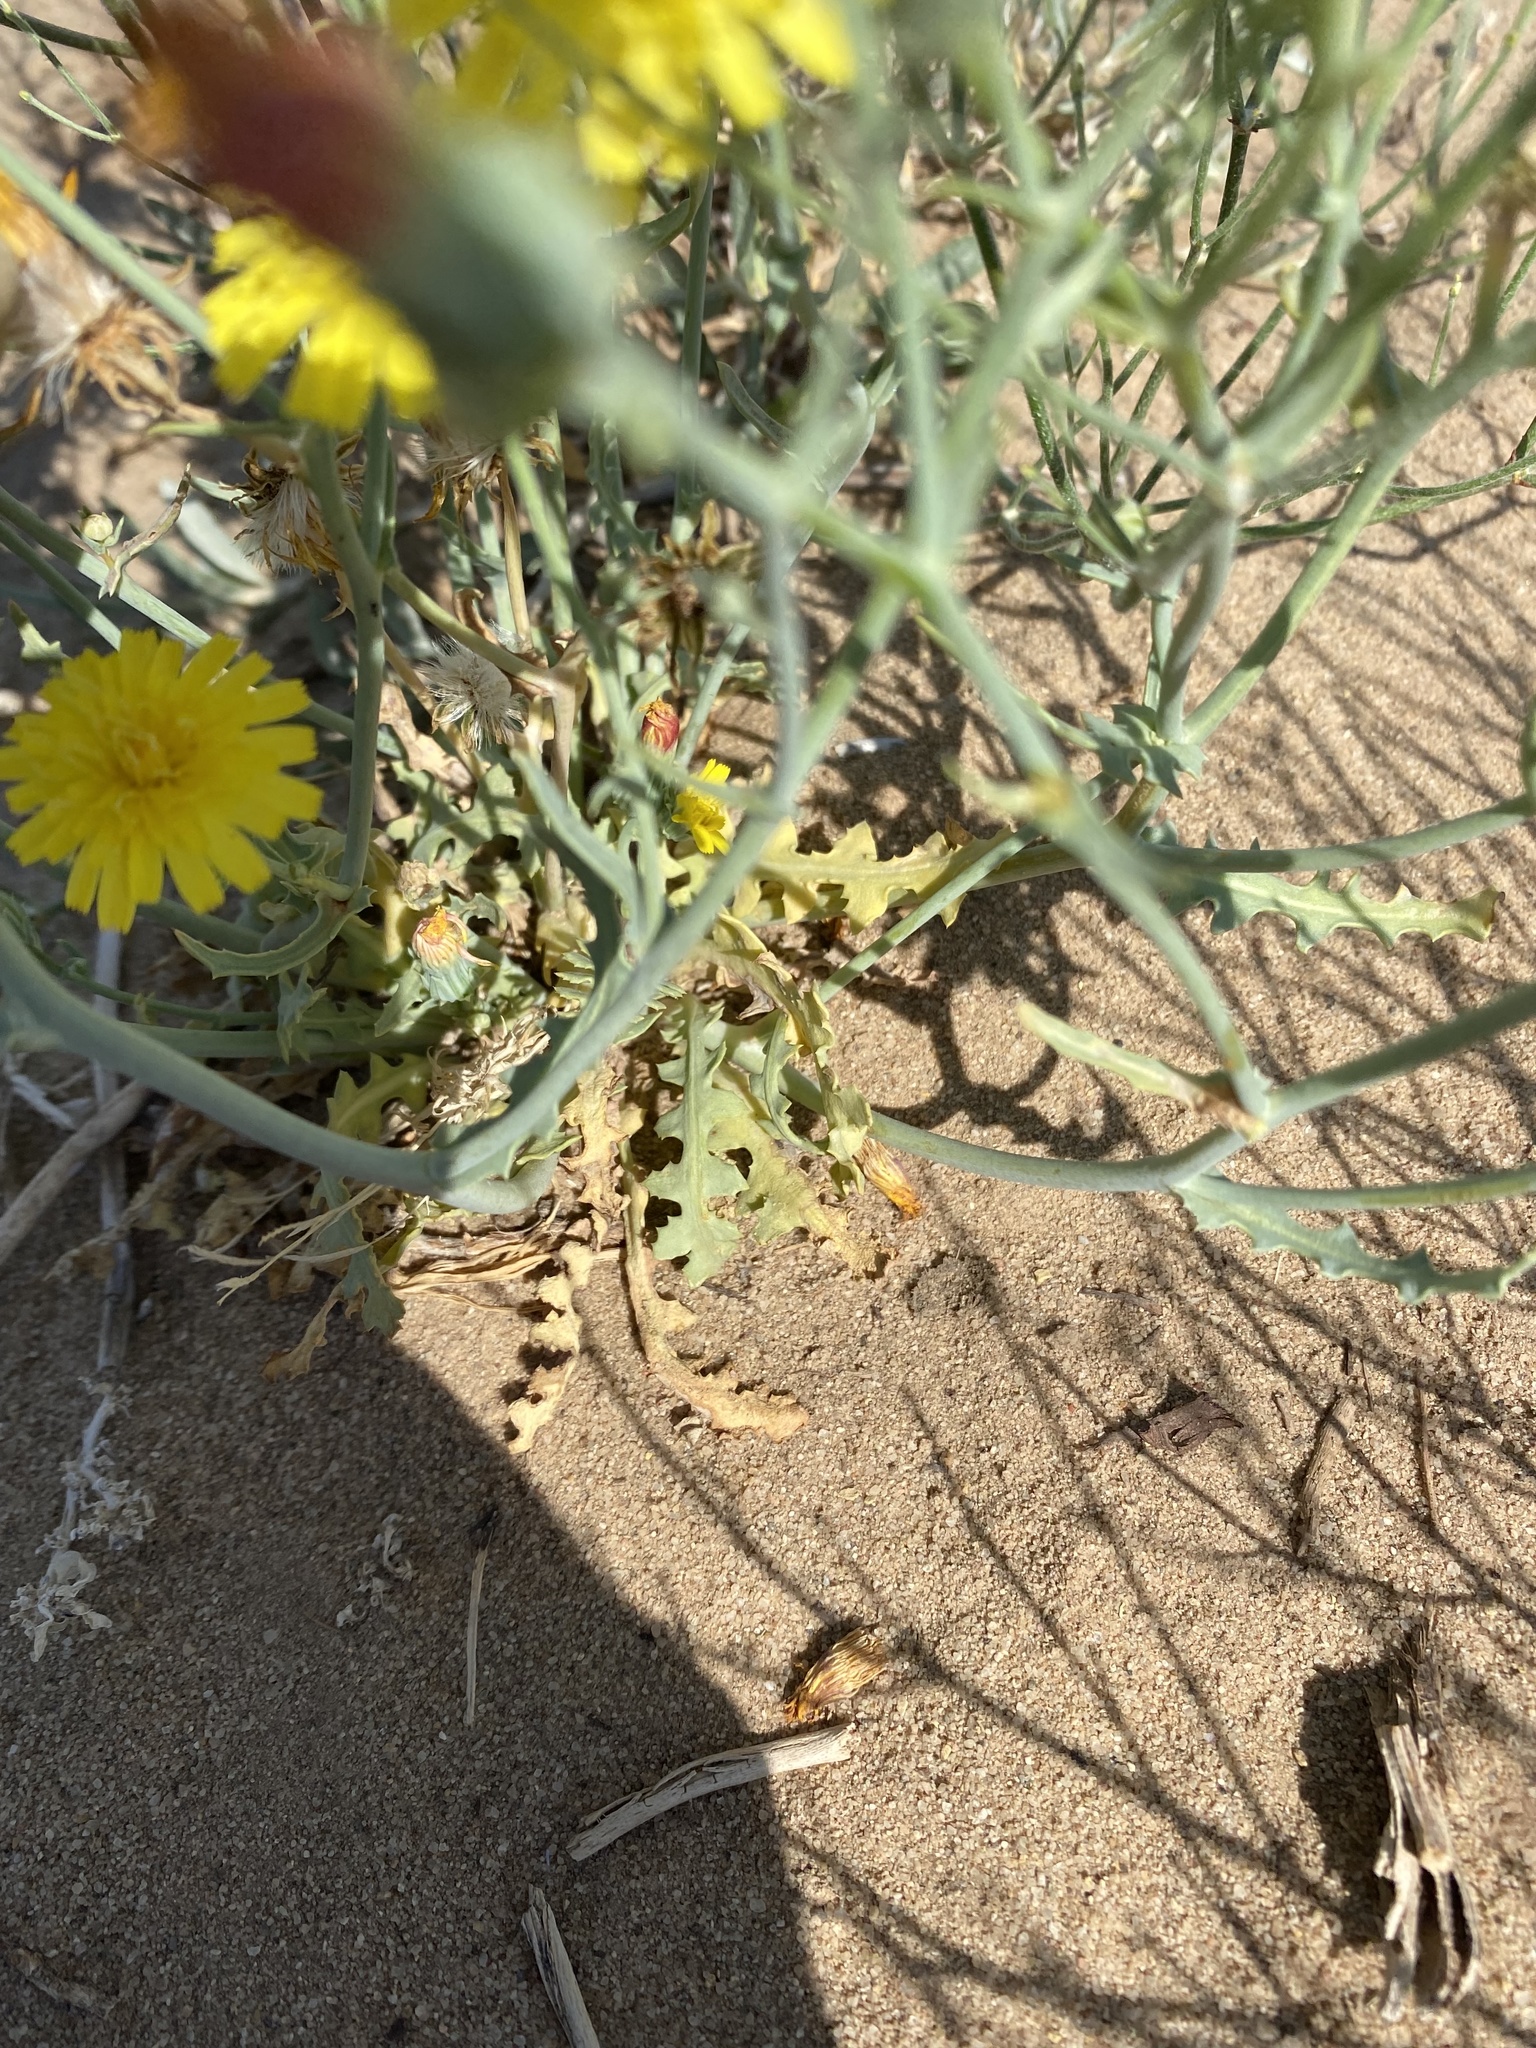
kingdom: Plantae
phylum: Tracheophyta
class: Magnoliopsida
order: Asterales
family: Asteraceae
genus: Malacothrix
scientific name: Malacothrix sonchoides
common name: Sow-thistle desert-dandelion
